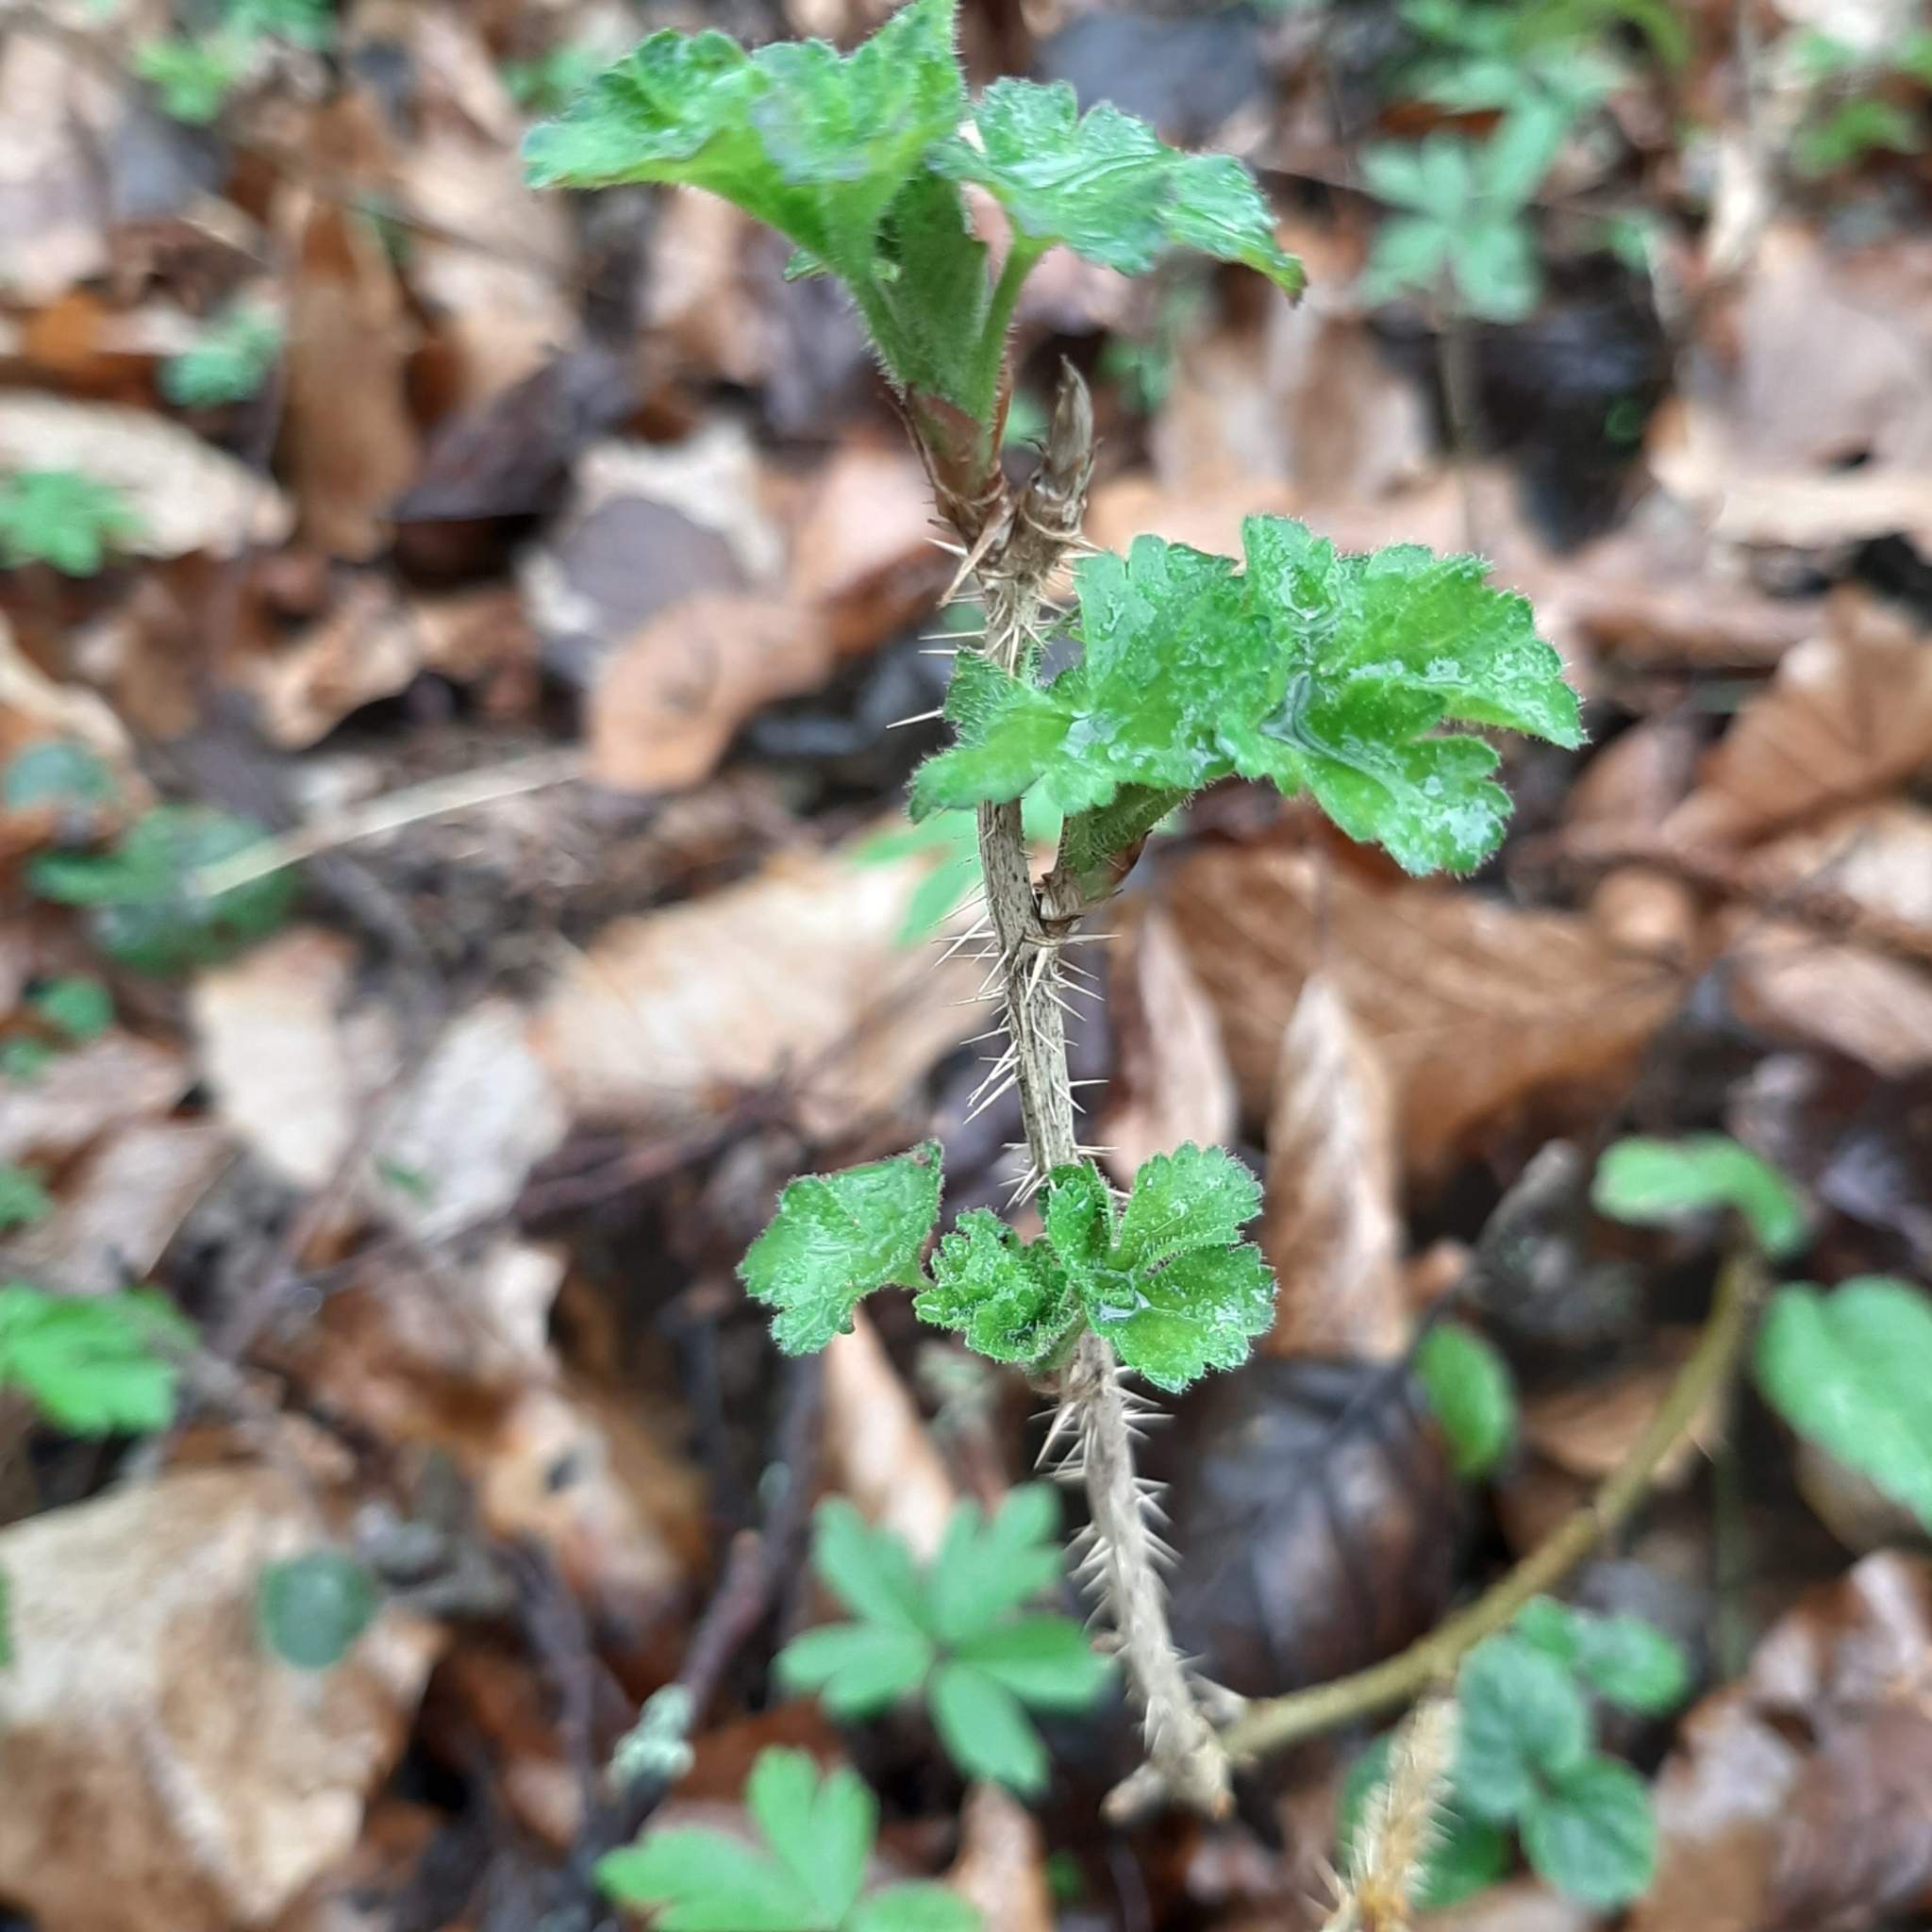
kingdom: Plantae
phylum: Tracheophyta
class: Magnoliopsida
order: Saxifragales
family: Grossulariaceae
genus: Ribes
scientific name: Ribes uva-crispa
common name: Gooseberry
